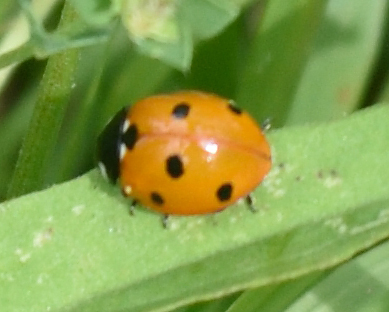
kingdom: Animalia
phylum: Arthropoda
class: Insecta
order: Coleoptera
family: Coccinellidae
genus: Coccinella
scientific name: Coccinella septempunctata
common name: Sevenspotted lady beetle
